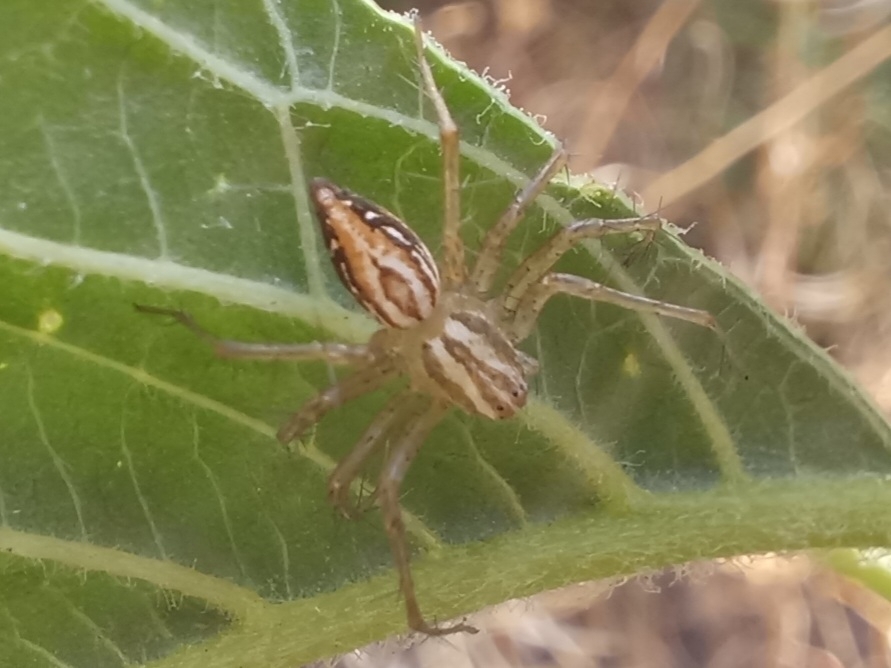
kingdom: Animalia
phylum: Arthropoda
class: Arachnida
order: Araneae
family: Oxyopidae
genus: Oxyopes
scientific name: Oxyopes lineatus
